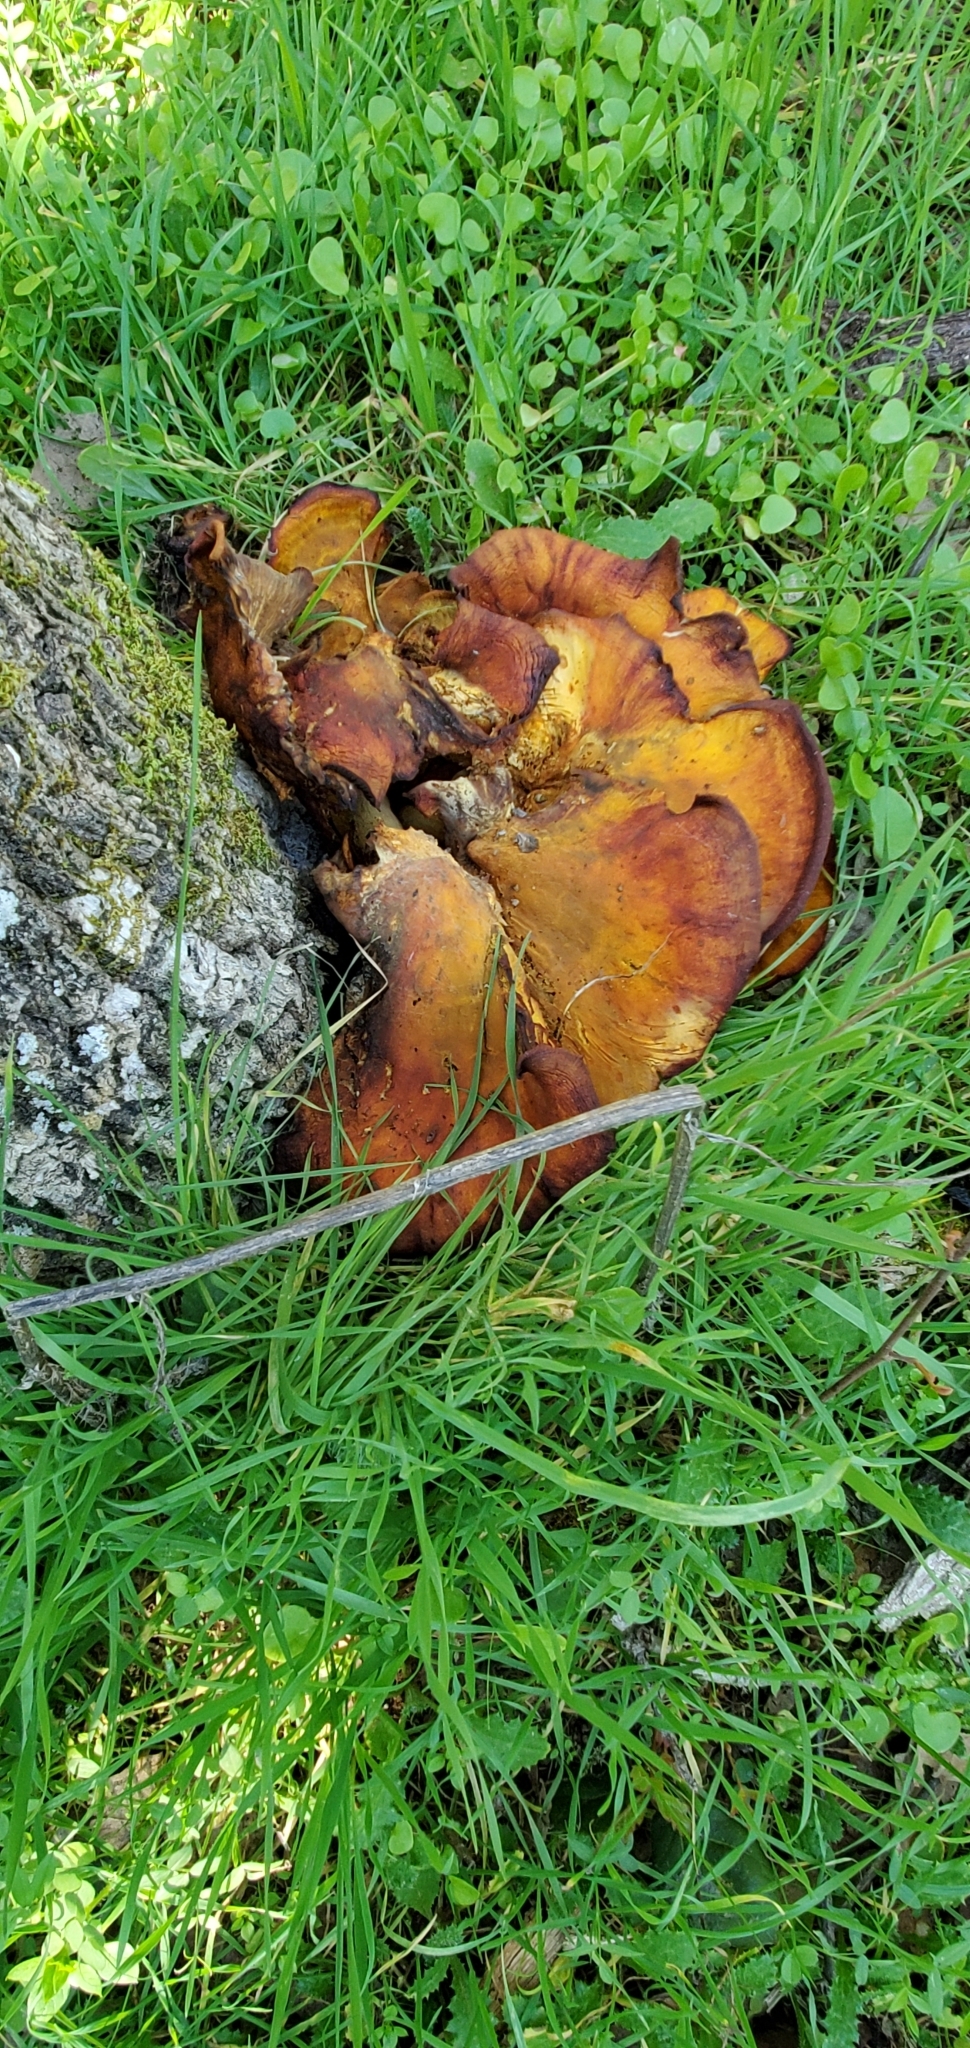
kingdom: Fungi
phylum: Basidiomycota
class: Agaricomycetes
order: Agaricales
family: Omphalotaceae
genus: Omphalotus
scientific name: Omphalotus olivascens
